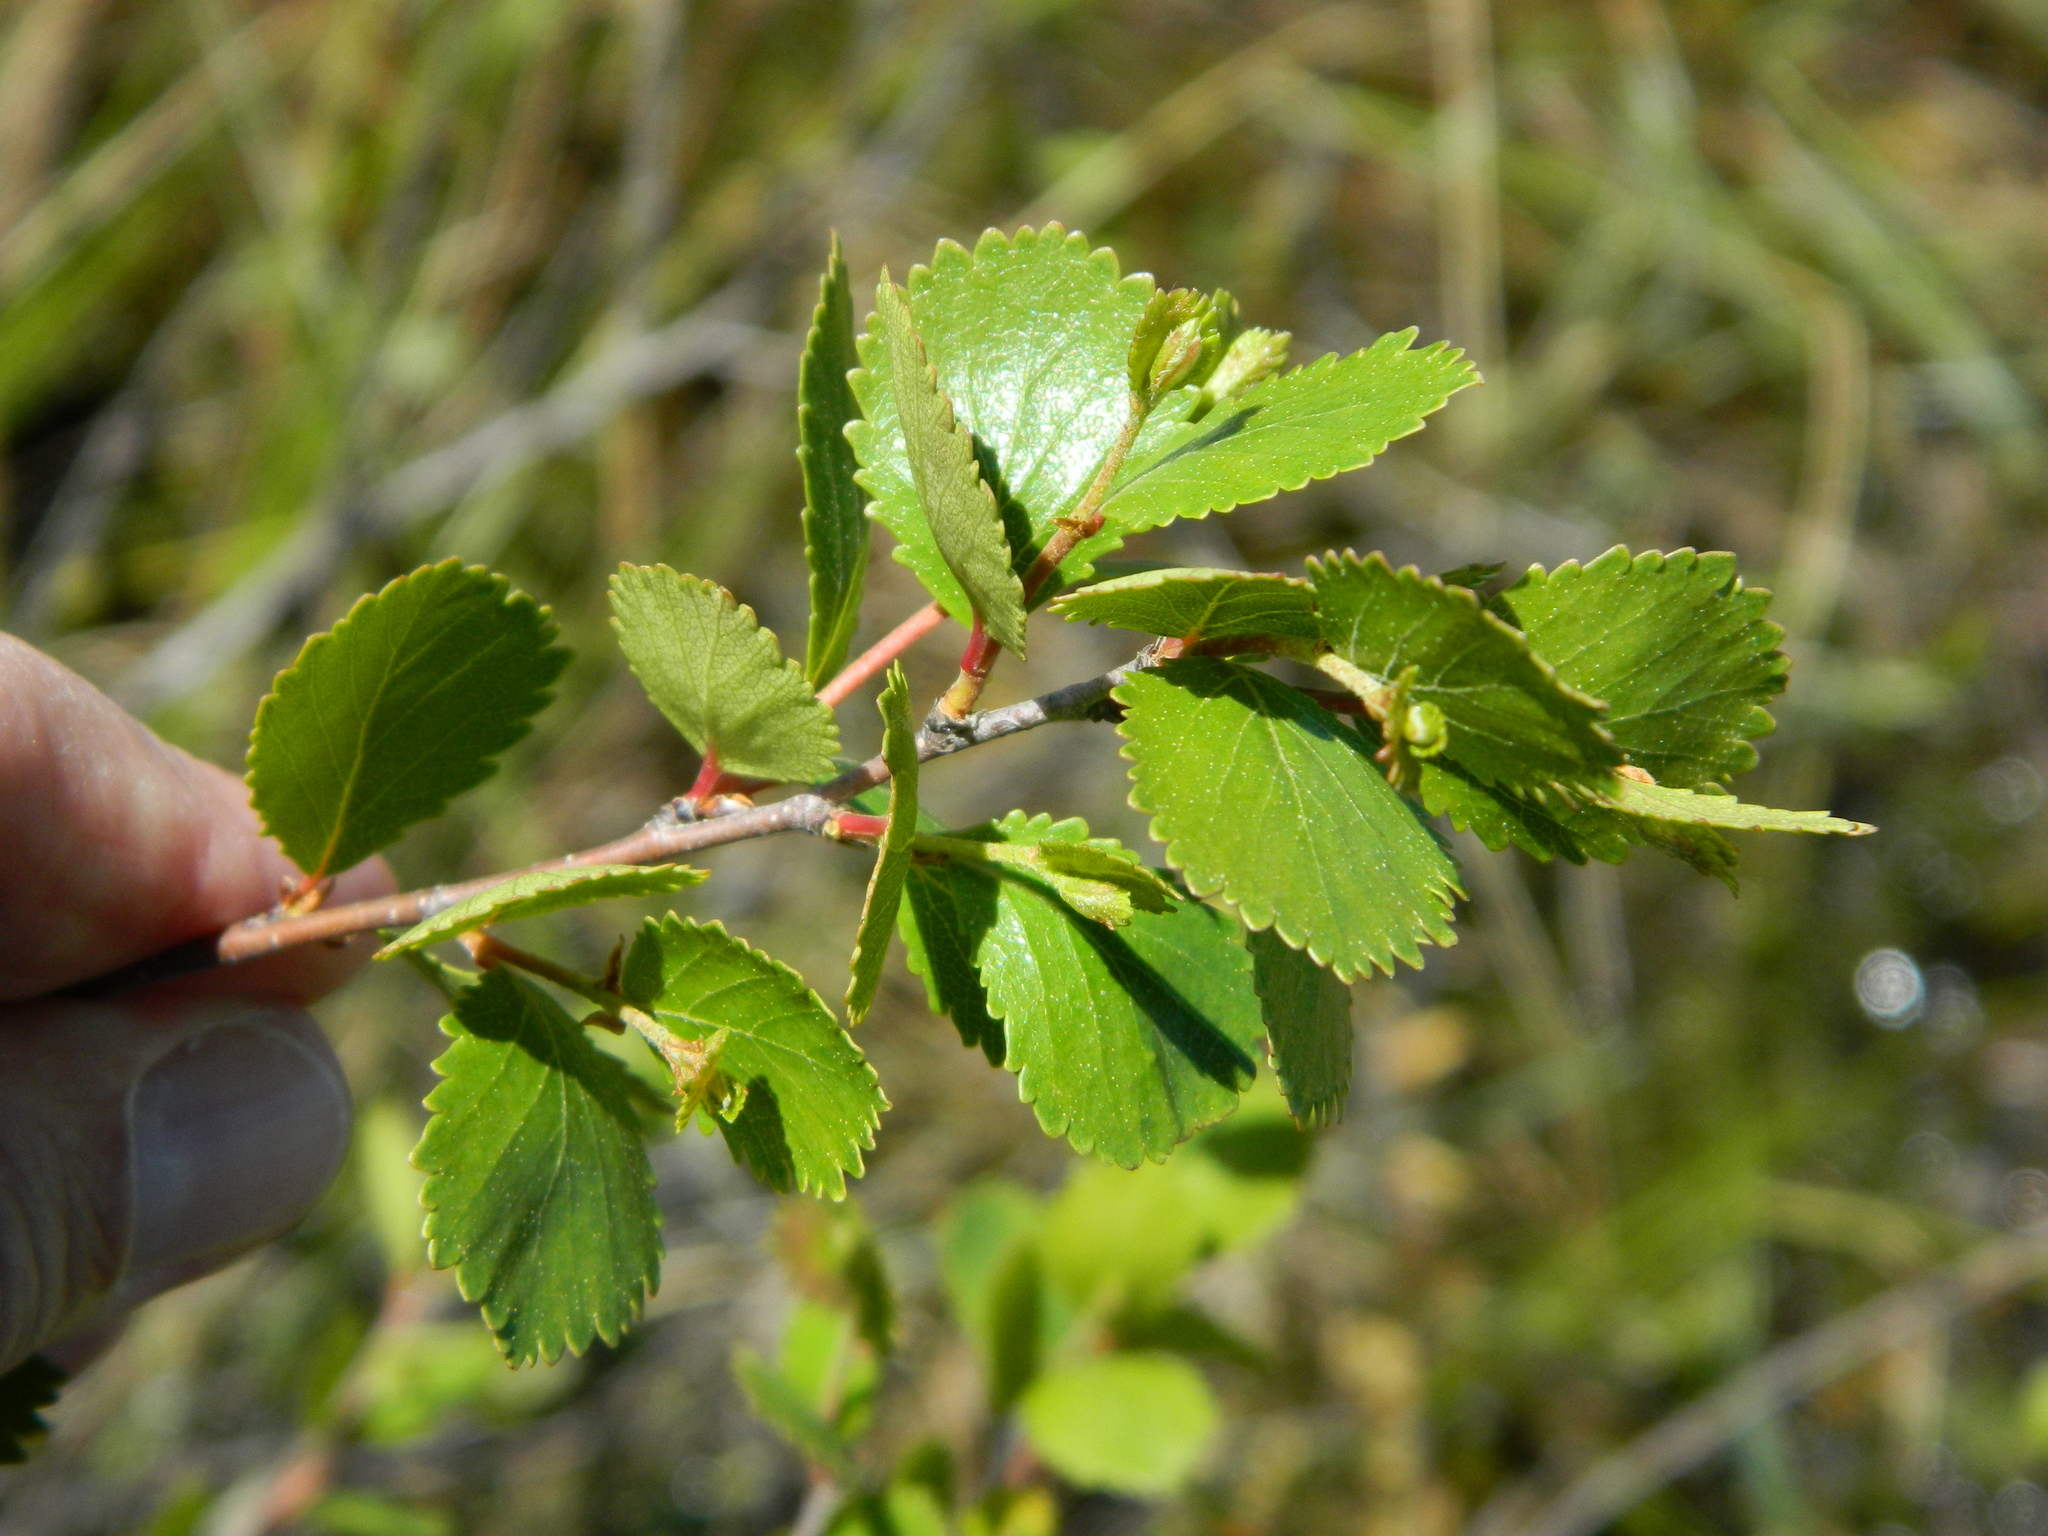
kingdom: Plantae
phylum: Tracheophyta
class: Magnoliopsida
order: Fagales
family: Betulaceae
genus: Betula
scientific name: Betula pumila
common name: Bog birch
